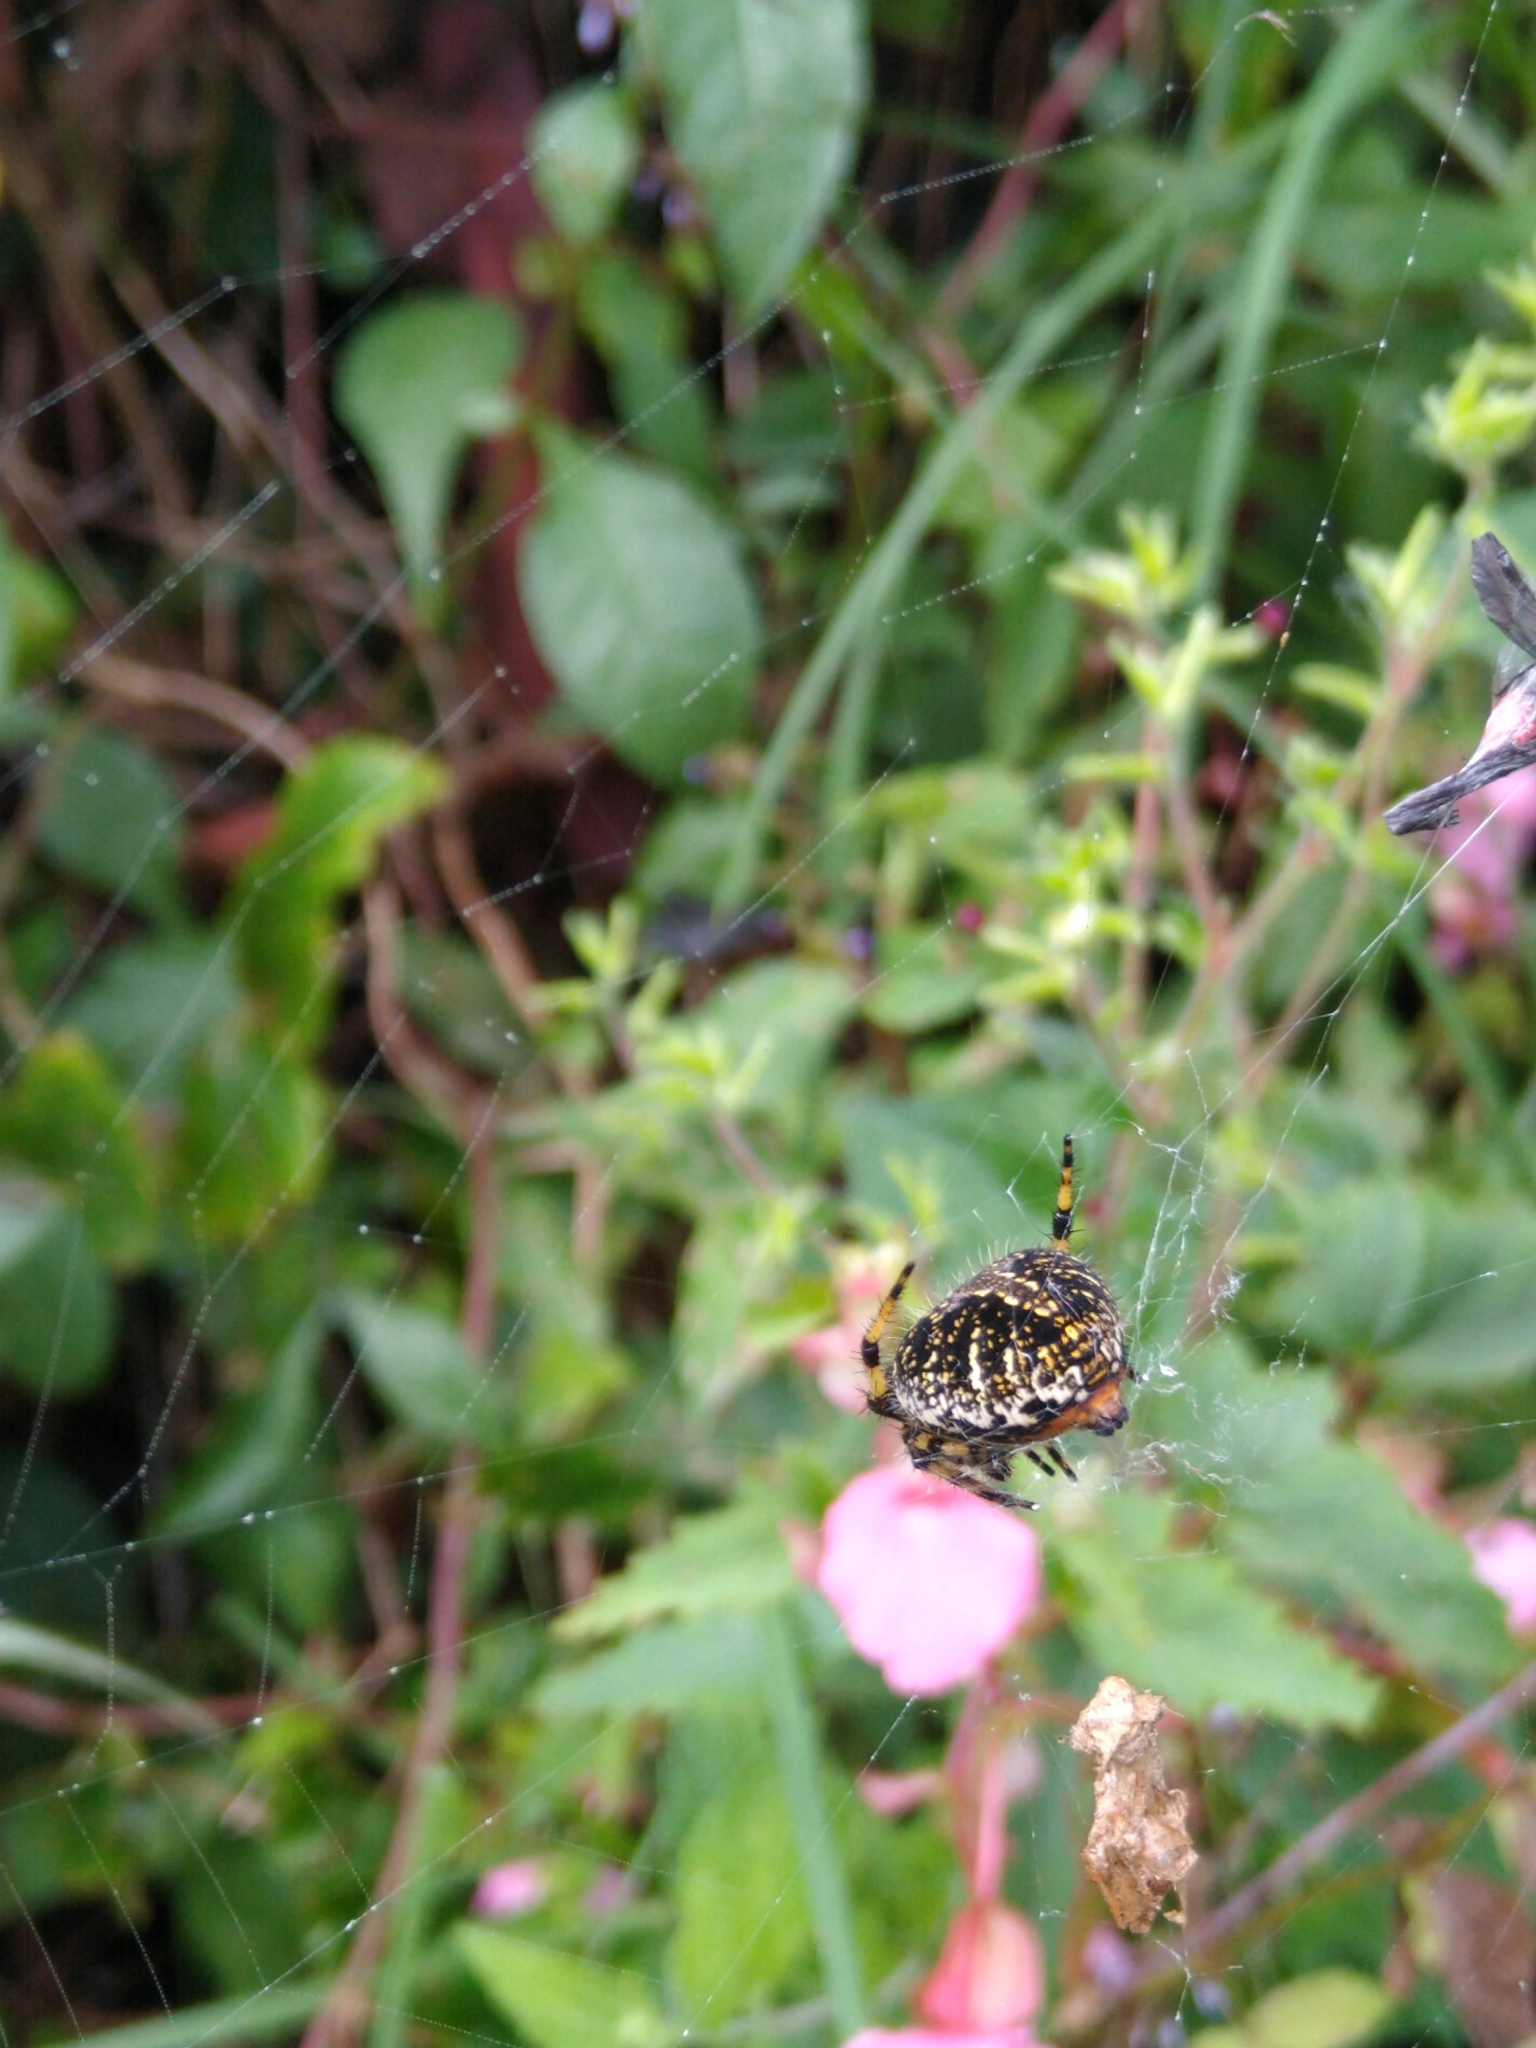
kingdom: Animalia
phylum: Arthropoda
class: Arachnida
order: Araneae
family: Araneidae
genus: Neoscona
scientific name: Neoscona orizabensis
